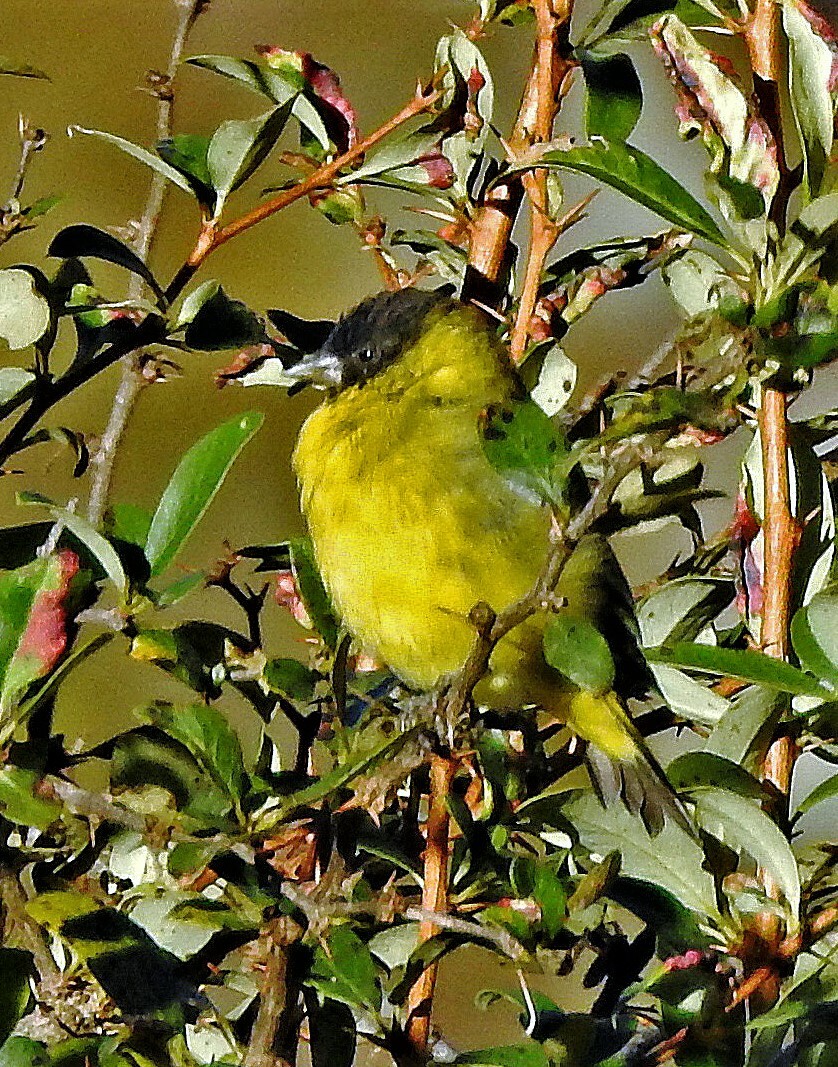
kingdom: Animalia
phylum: Chordata
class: Aves
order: Passeriformes
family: Fringillidae
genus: Spinus
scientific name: Spinus magellanicus
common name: Hooded siskin
